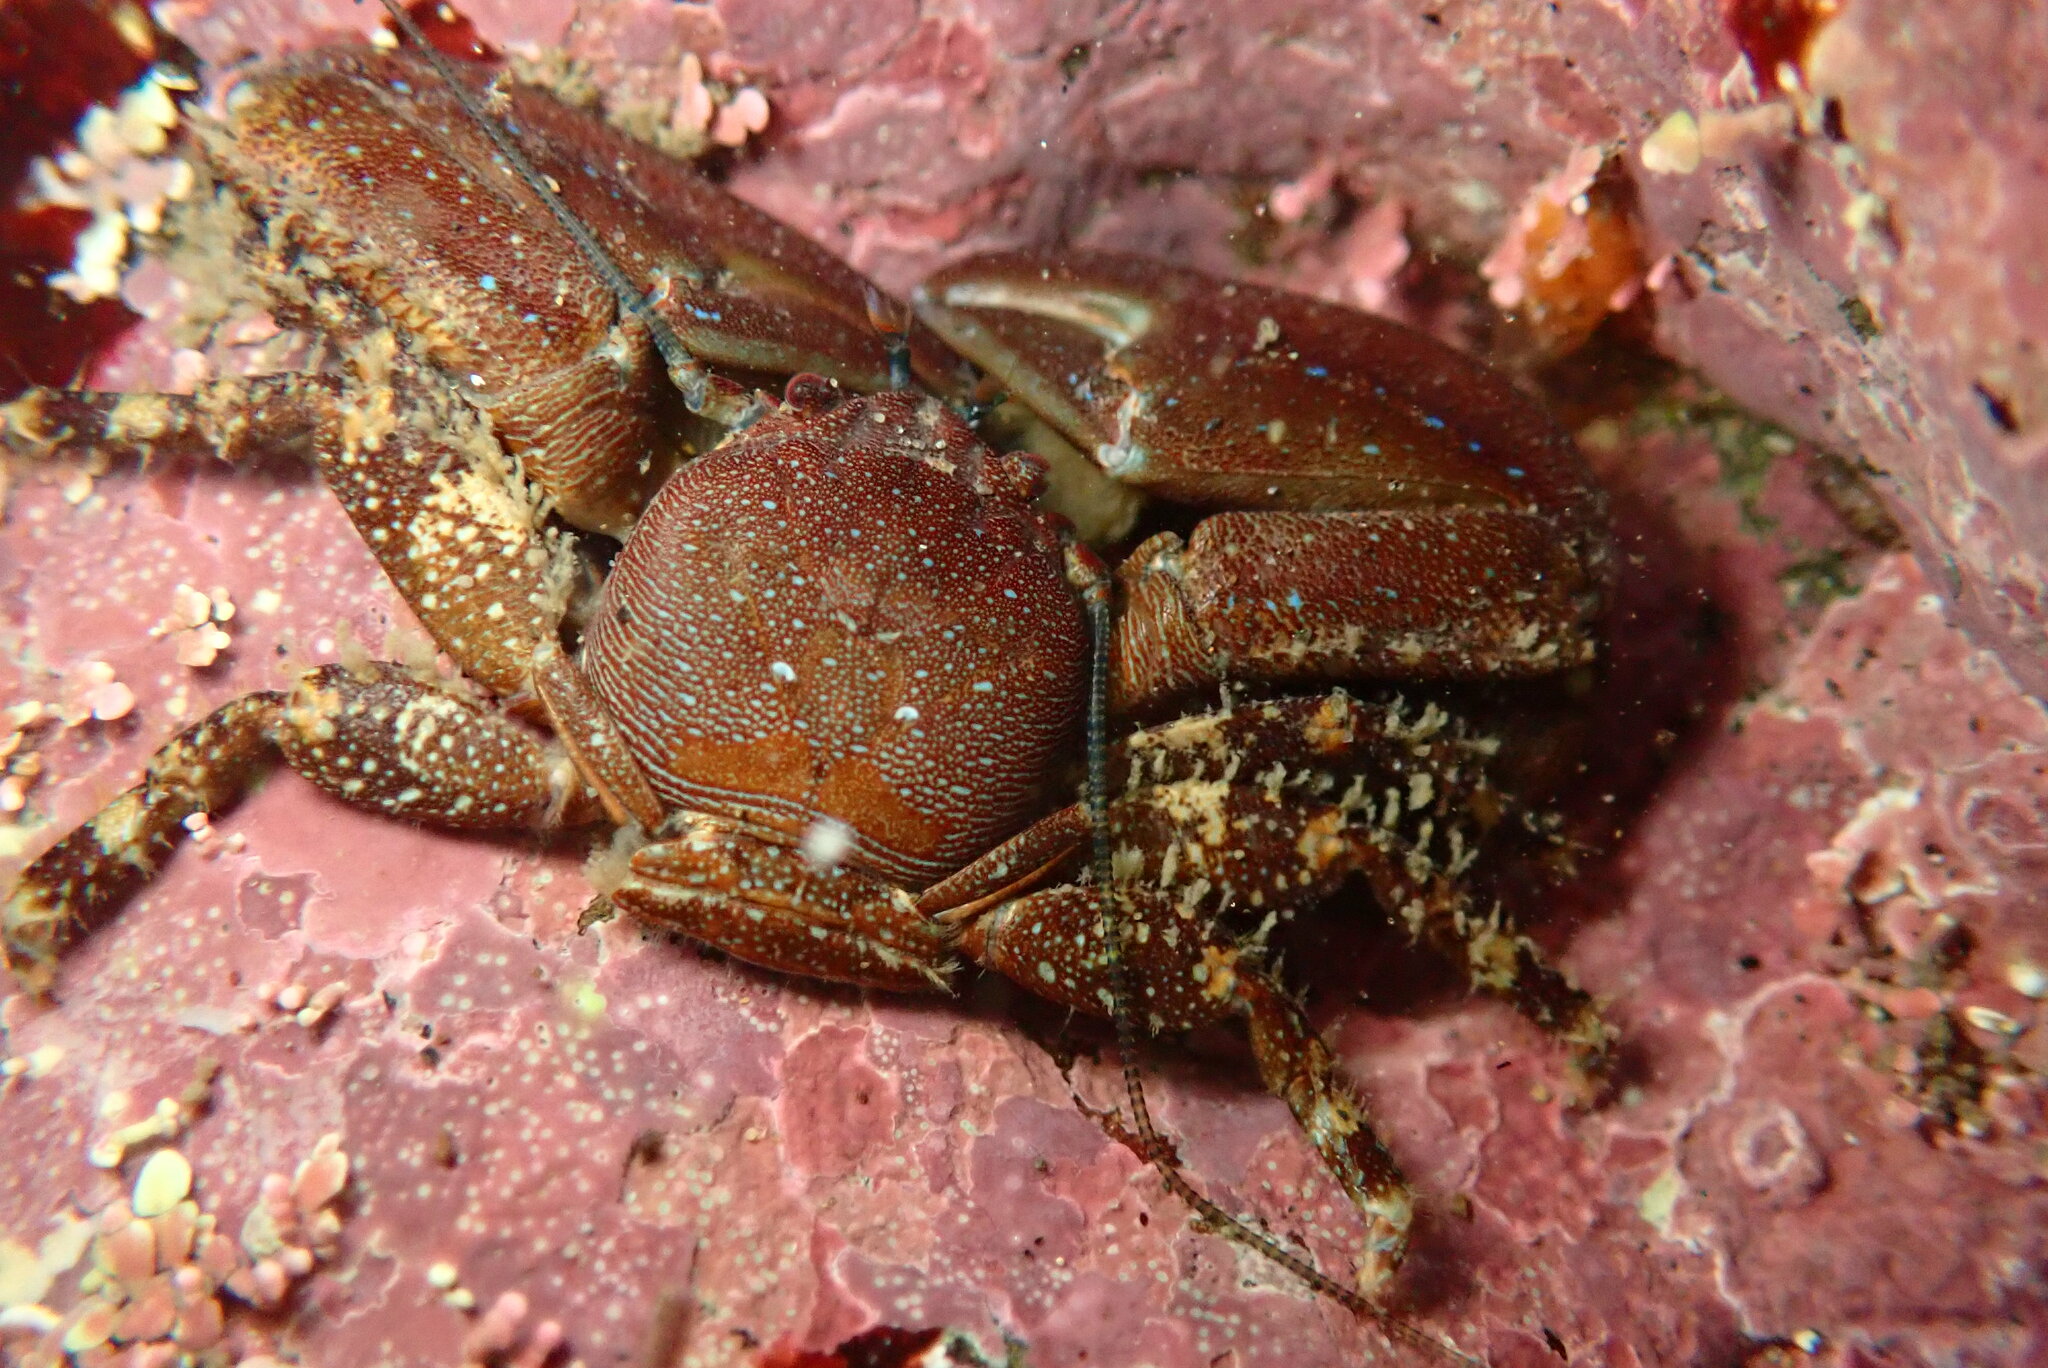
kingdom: Animalia
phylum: Arthropoda
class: Malacostraca
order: Decapoda
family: Porcellanidae
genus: Petrolisthes
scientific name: Petrolisthes manimaculis
